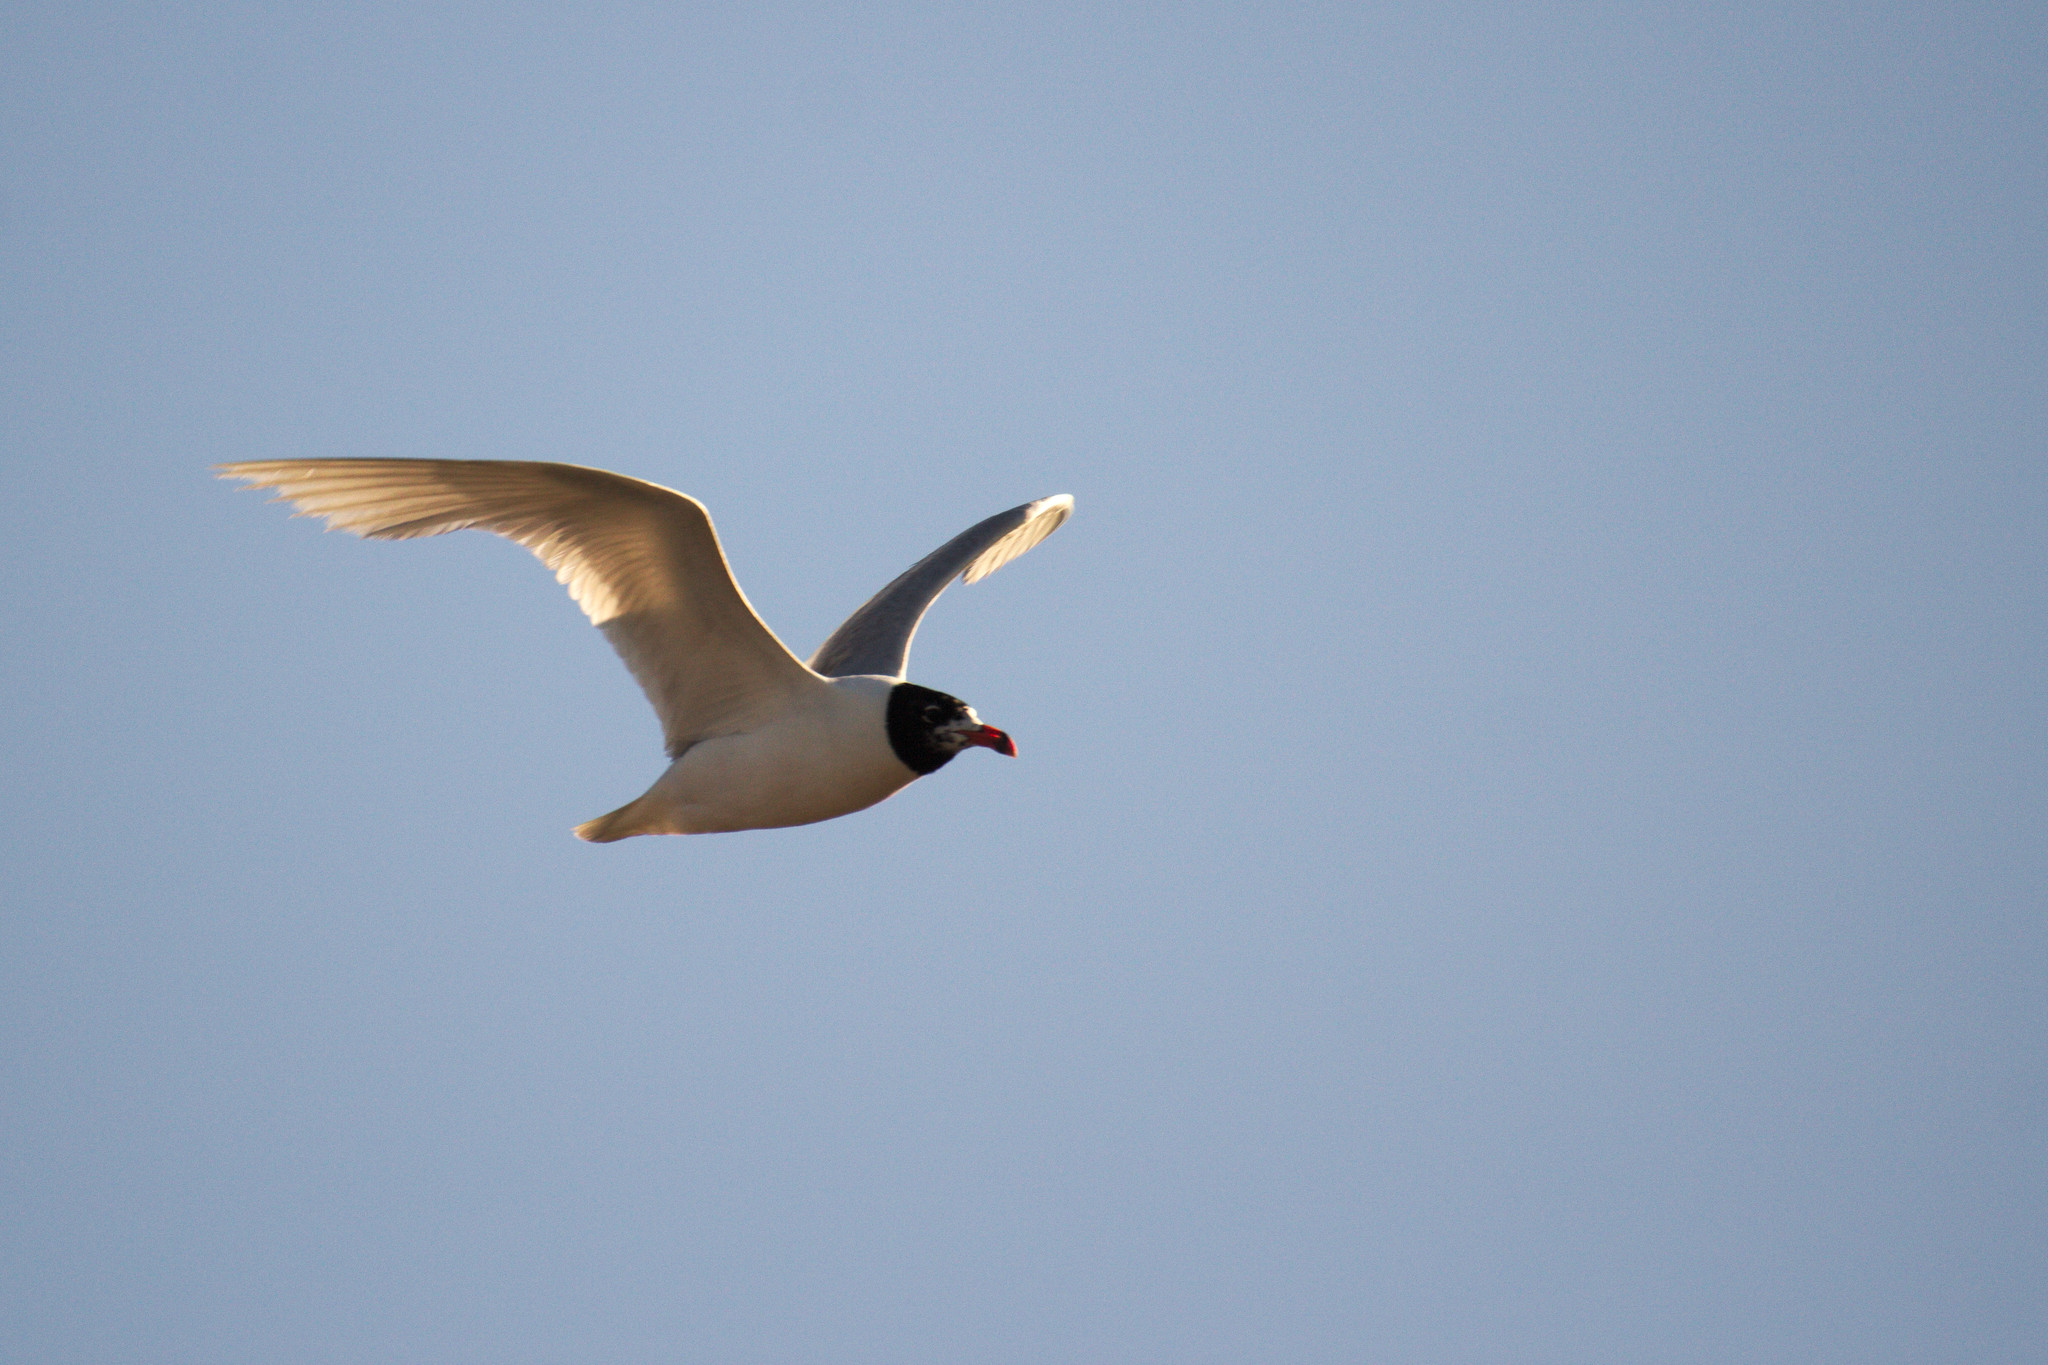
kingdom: Animalia
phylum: Chordata
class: Aves
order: Charadriiformes
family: Laridae
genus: Ichthyaetus
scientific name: Ichthyaetus melanocephalus
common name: Mediterranean gull
